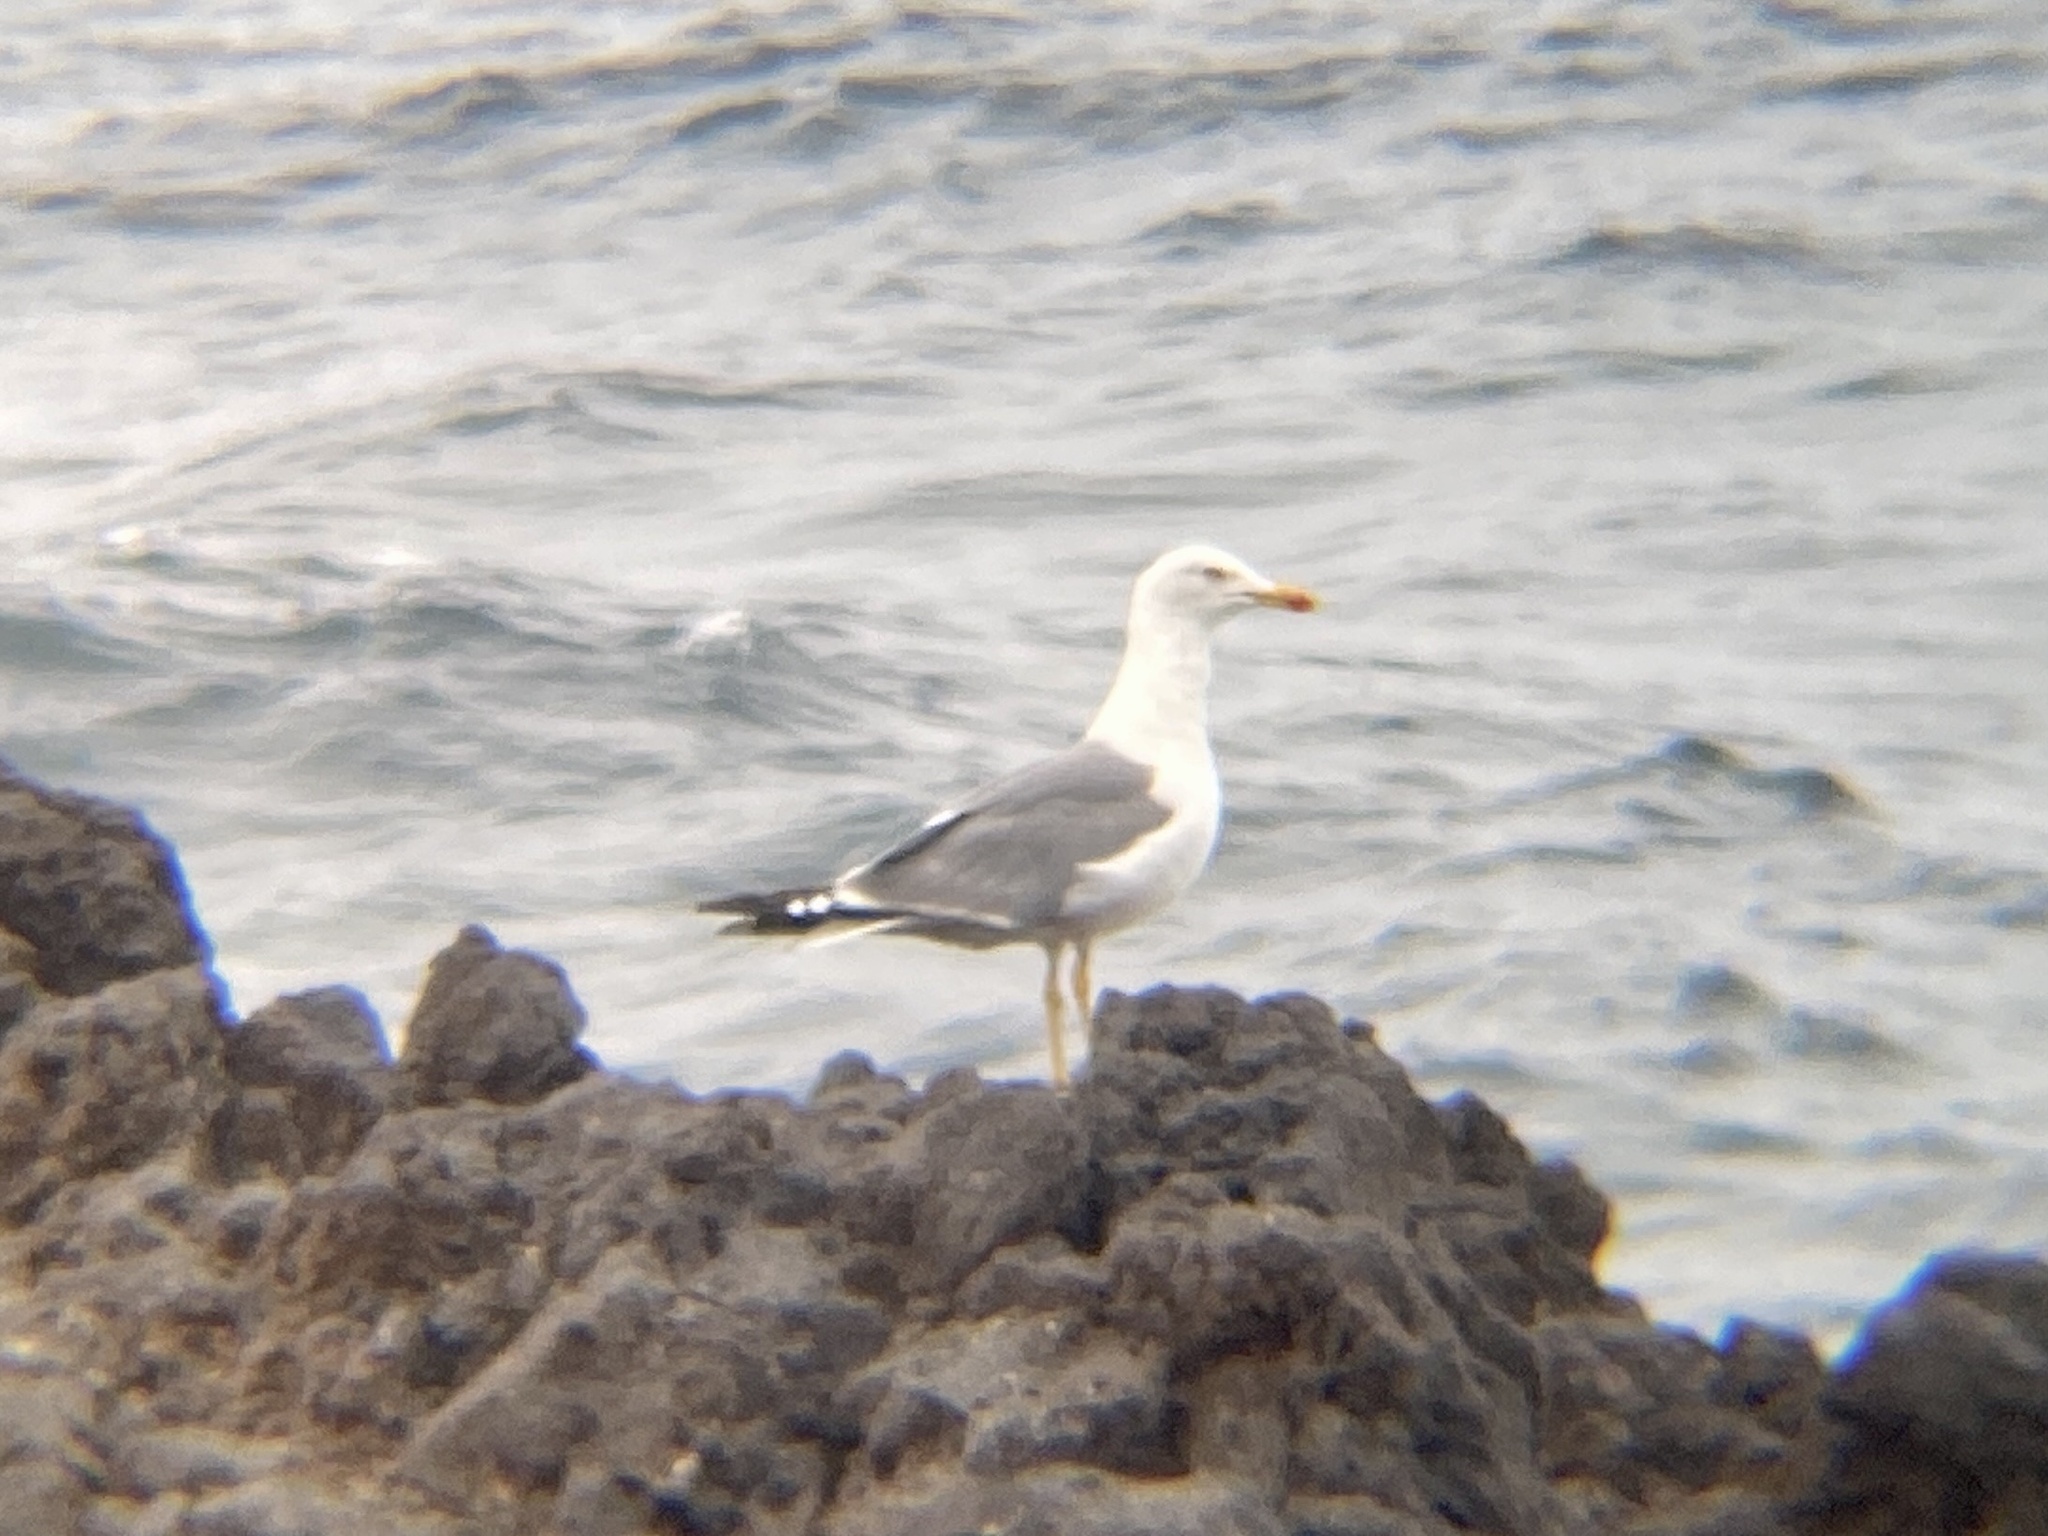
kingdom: Animalia
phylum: Chordata
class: Aves
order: Charadriiformes
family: Laridae
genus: Larus
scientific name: Larus michahellis
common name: Yellow-legged gull
